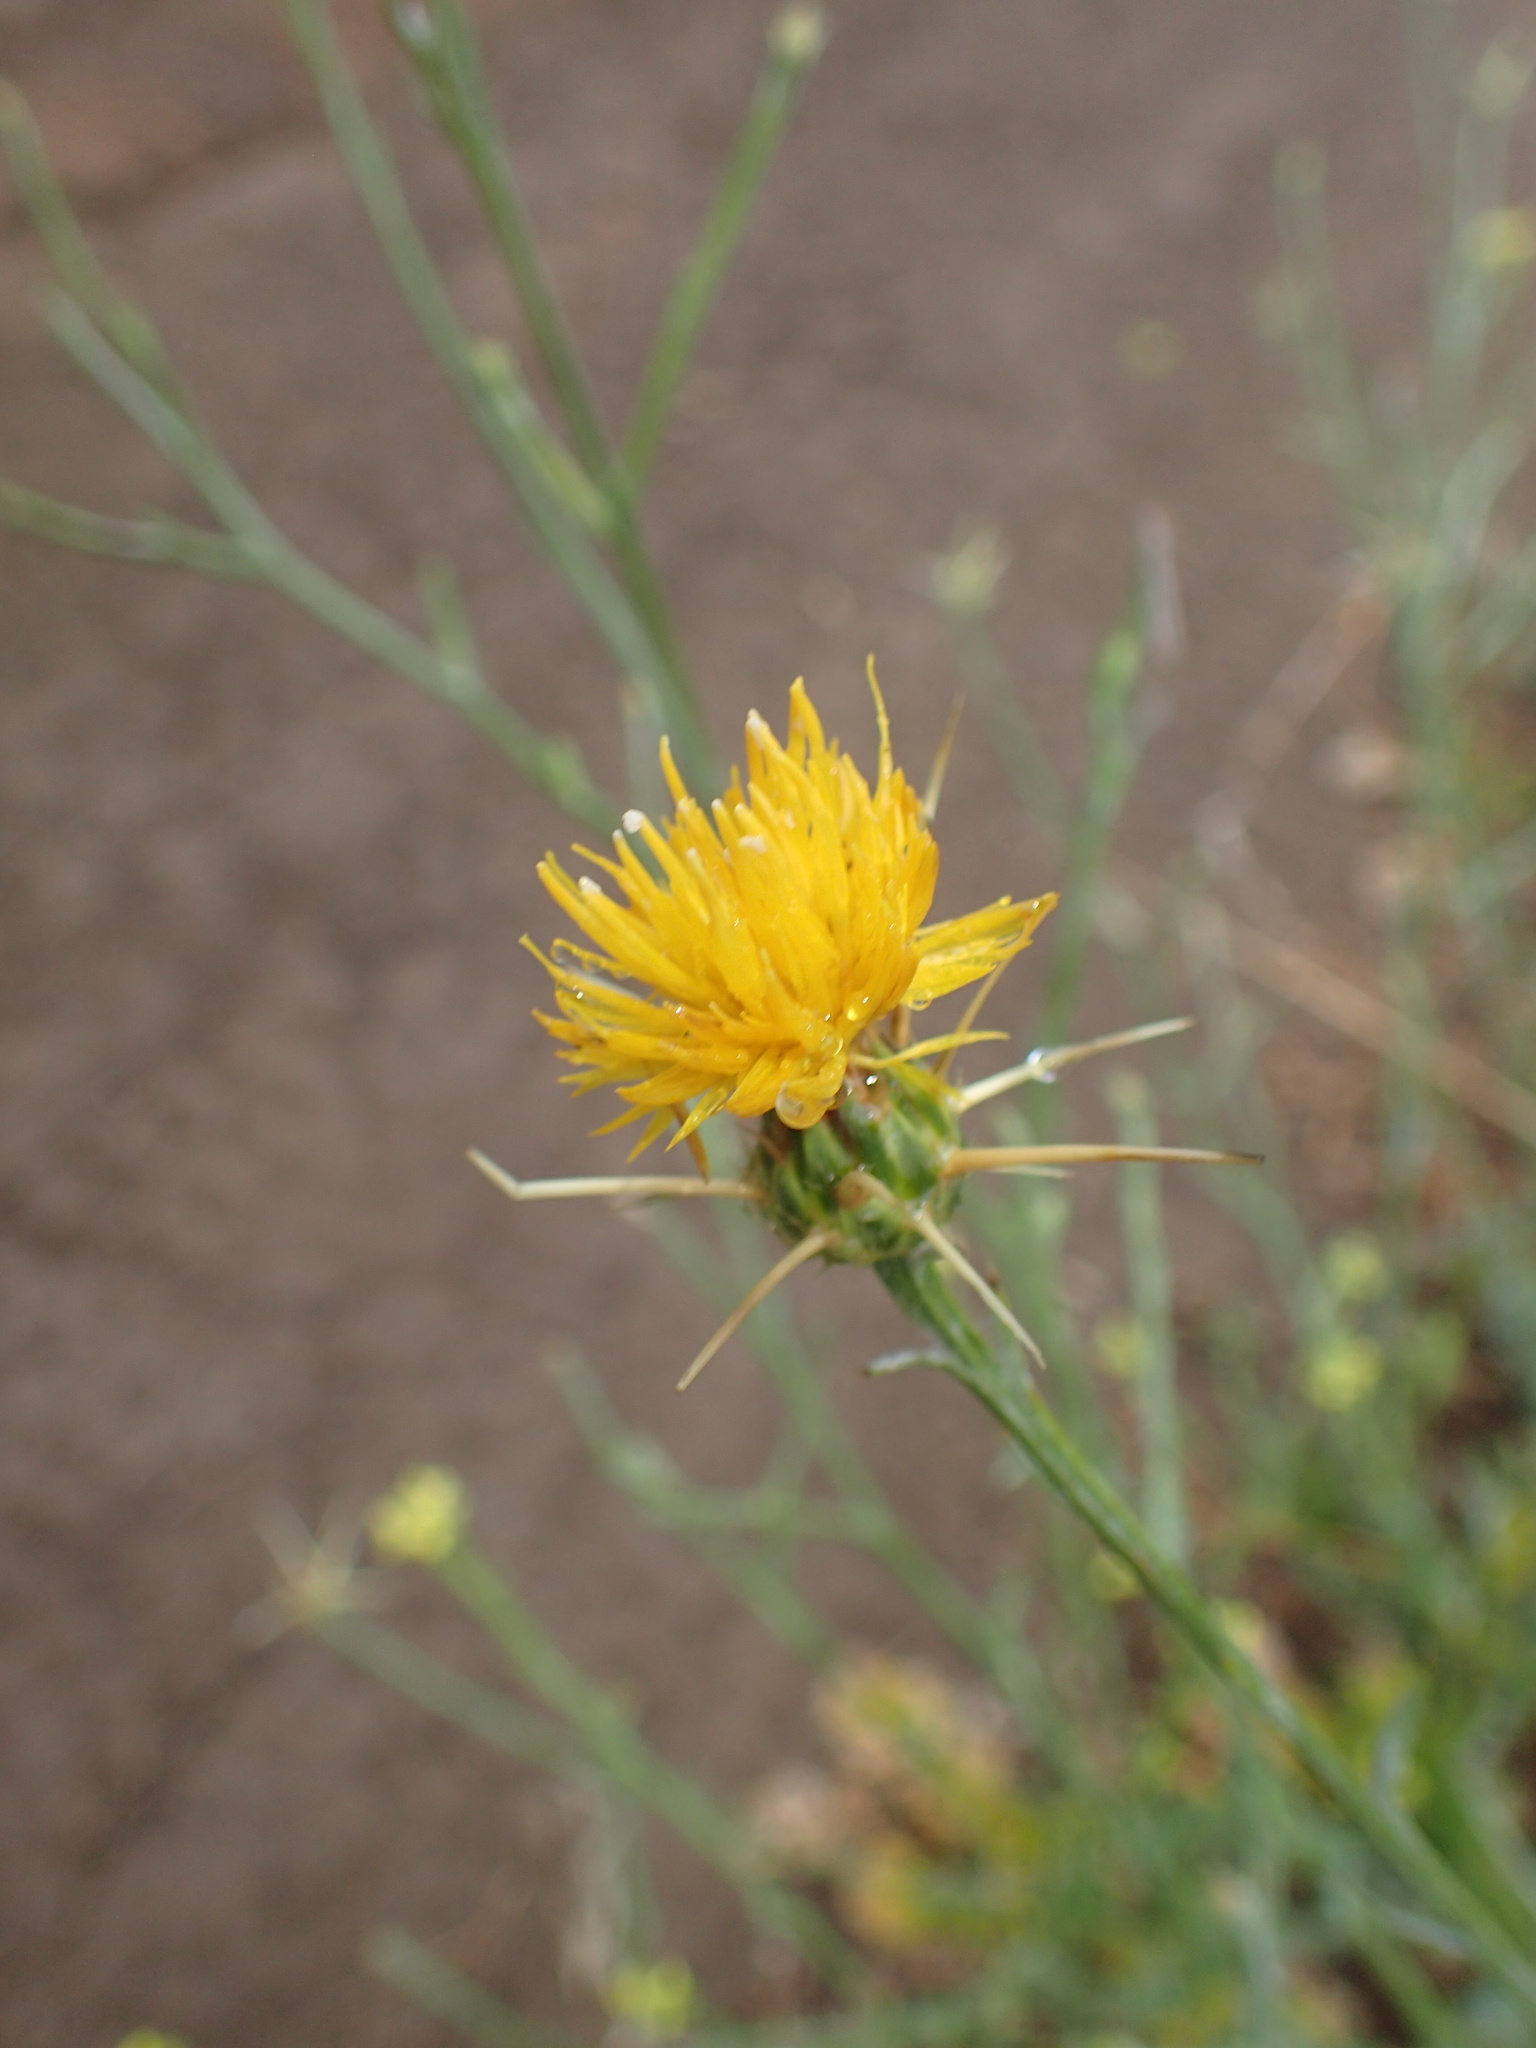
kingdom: Plantae
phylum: Tracheophyta
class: Magnoliopsida
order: Asterales
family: Asteraceae
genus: Centaurea
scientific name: Centaurea solstitialis
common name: Yellow star-thistle
